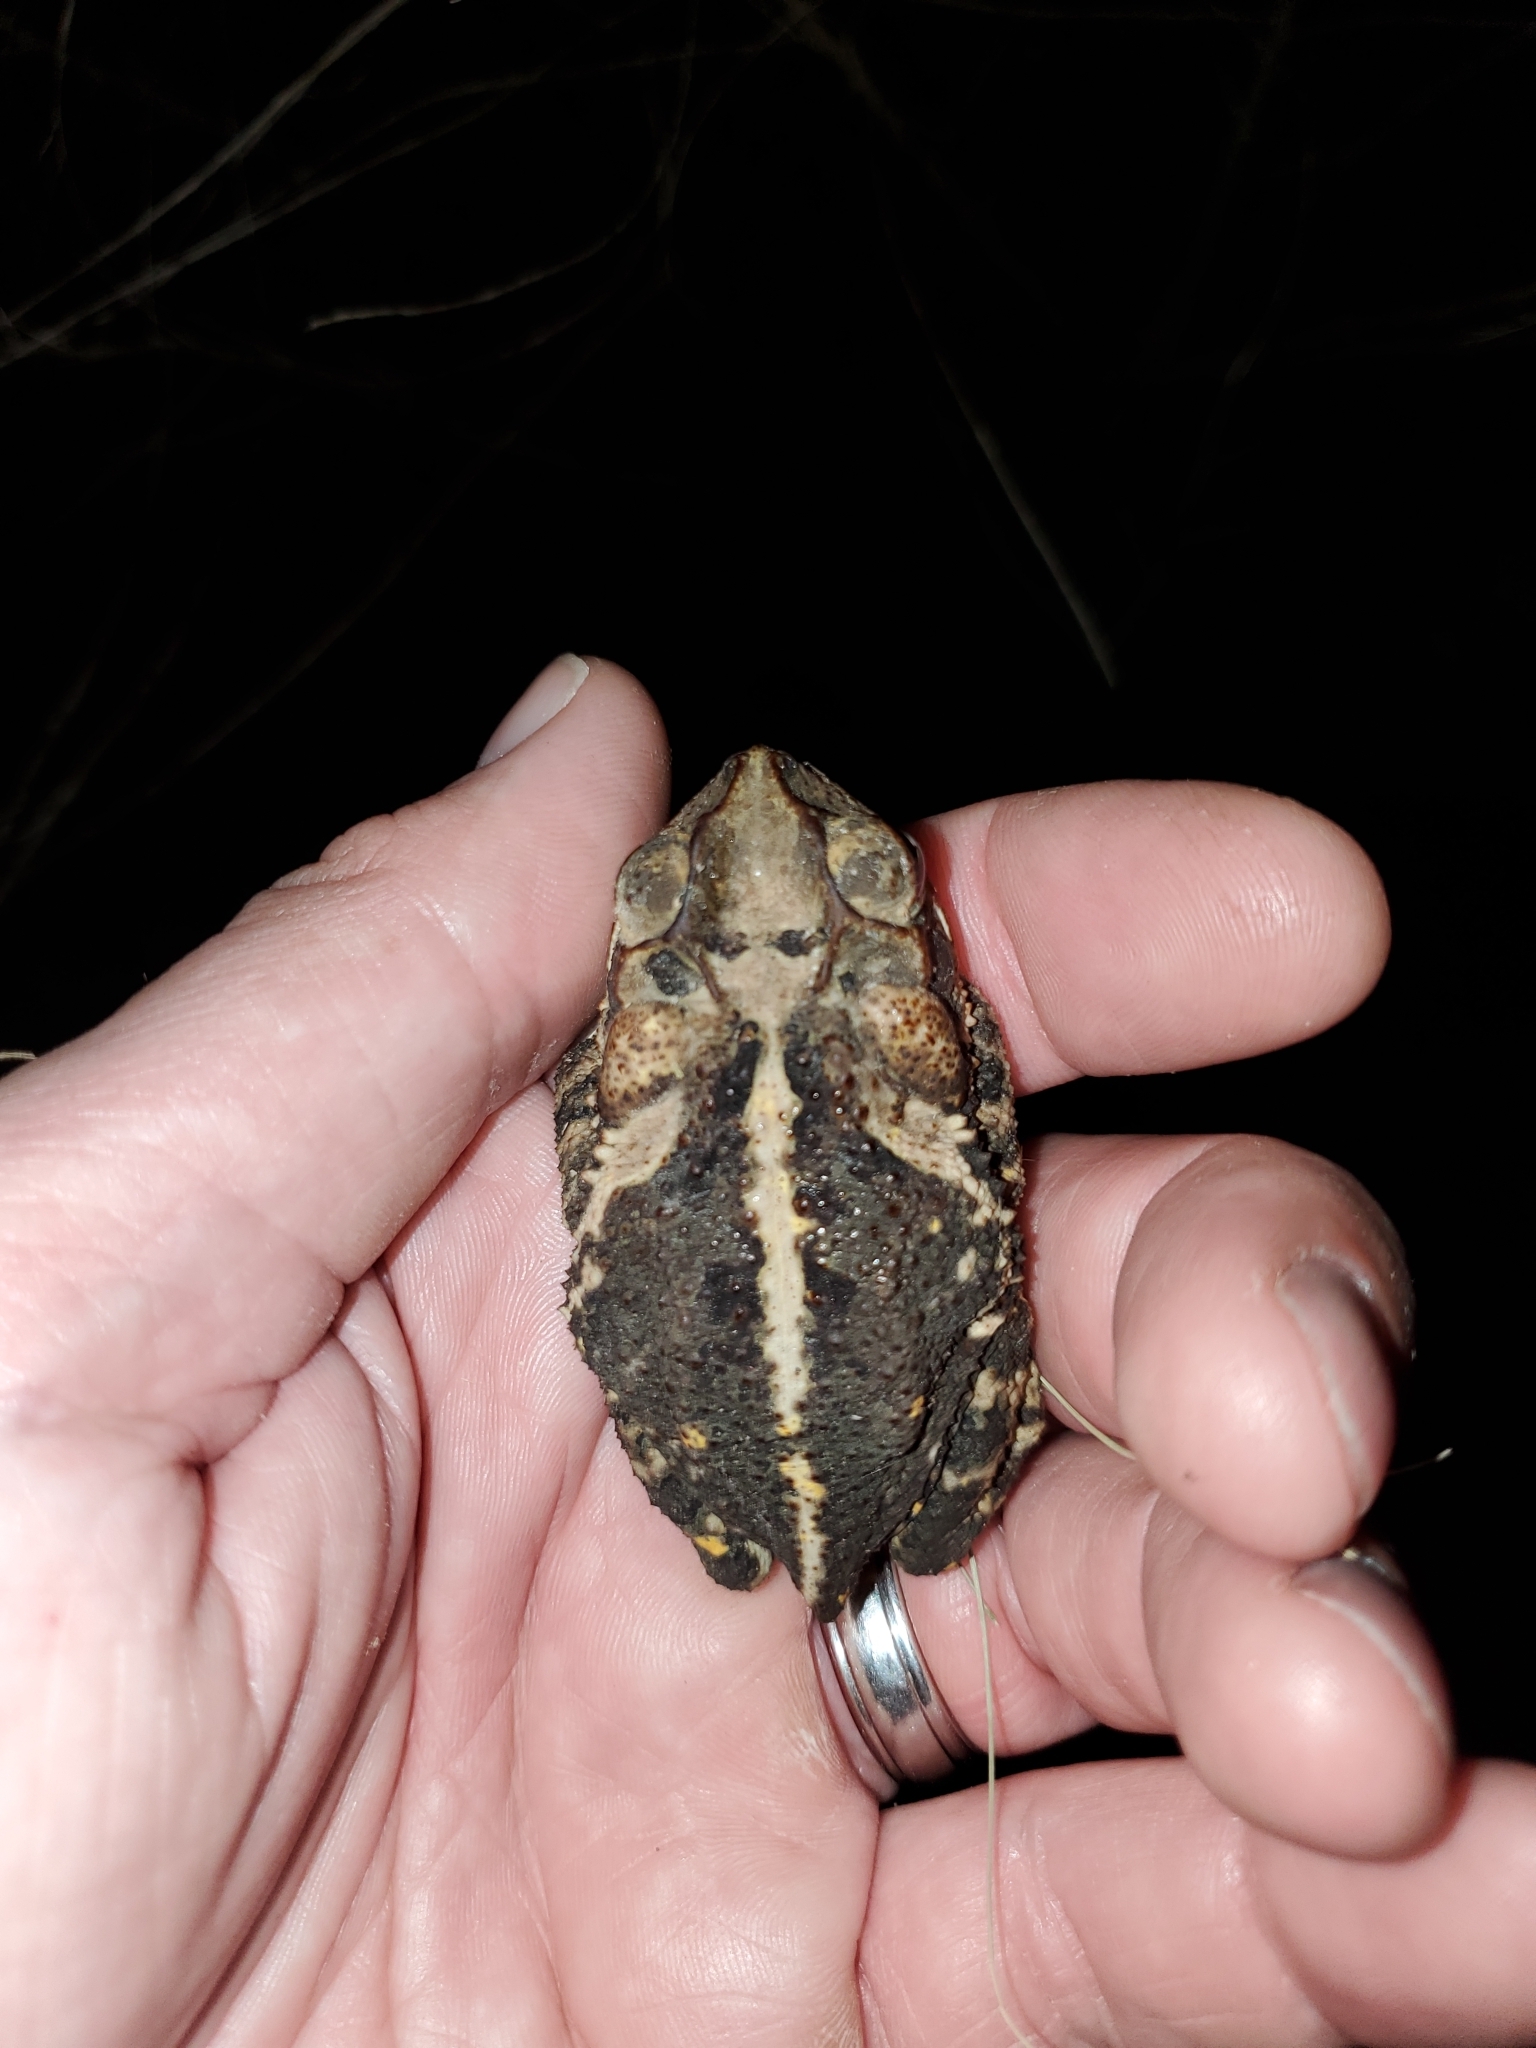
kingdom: Animalia
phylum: Chordata
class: Amphibia
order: Anura
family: Bufonidae
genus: Incilius
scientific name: Incilius nebulifer
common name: Gulf coast toad
